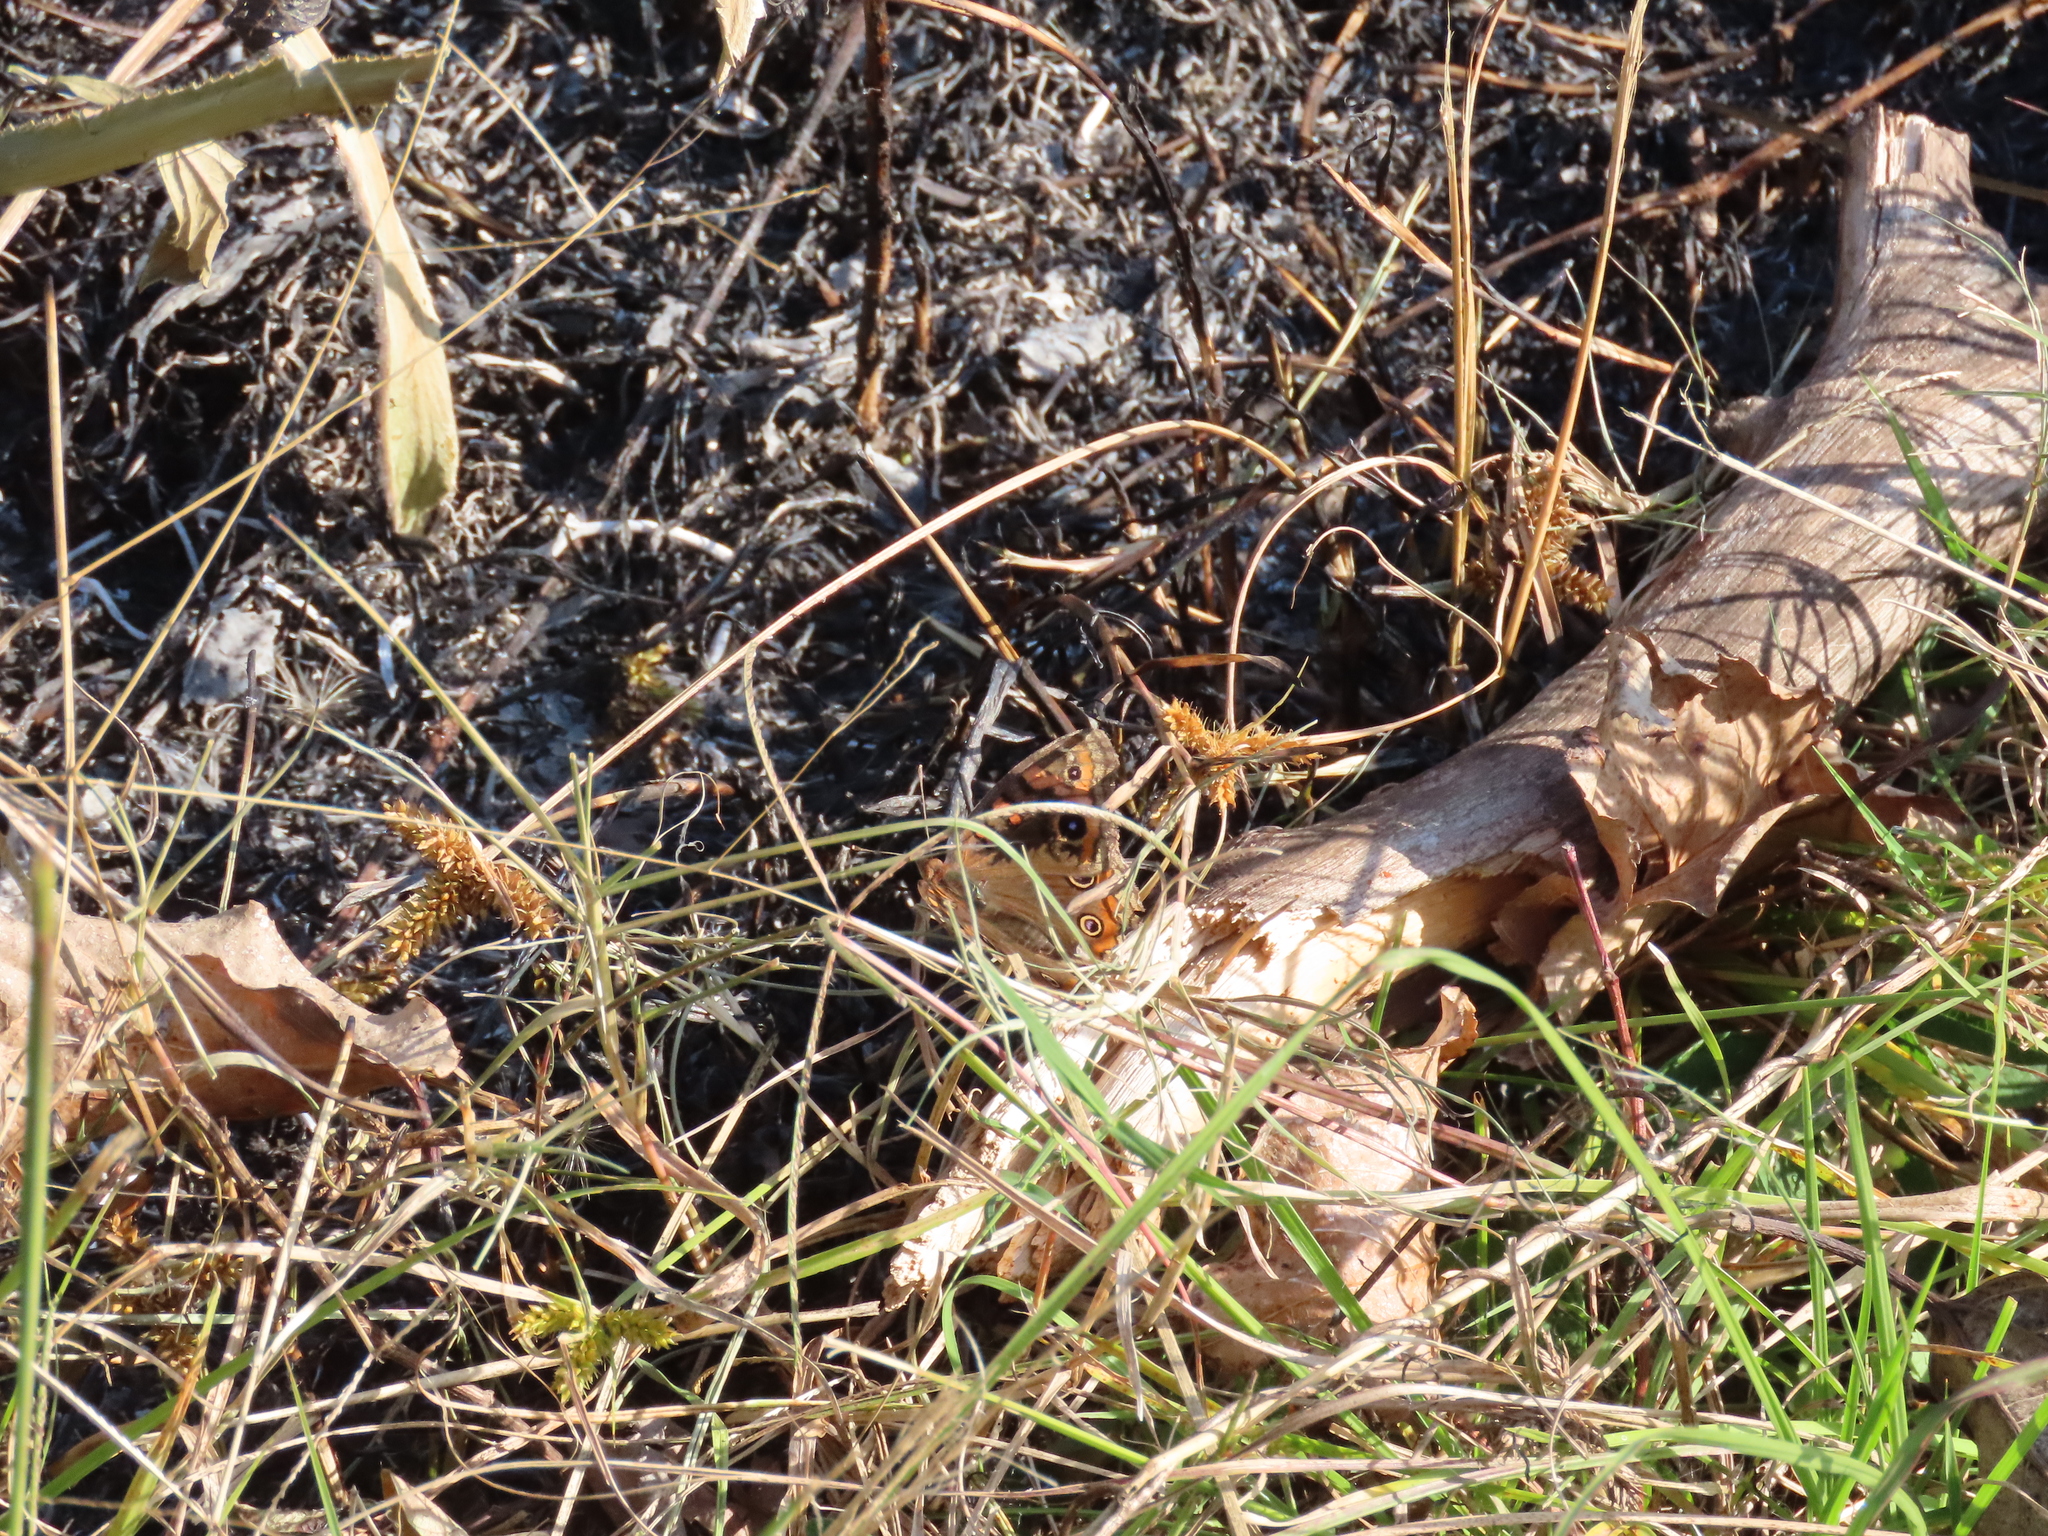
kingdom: Animalia
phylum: Arthropoda
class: Insecta
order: Lepidoptera
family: Nymphalidae
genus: Junonia
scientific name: Junonia lavinia
